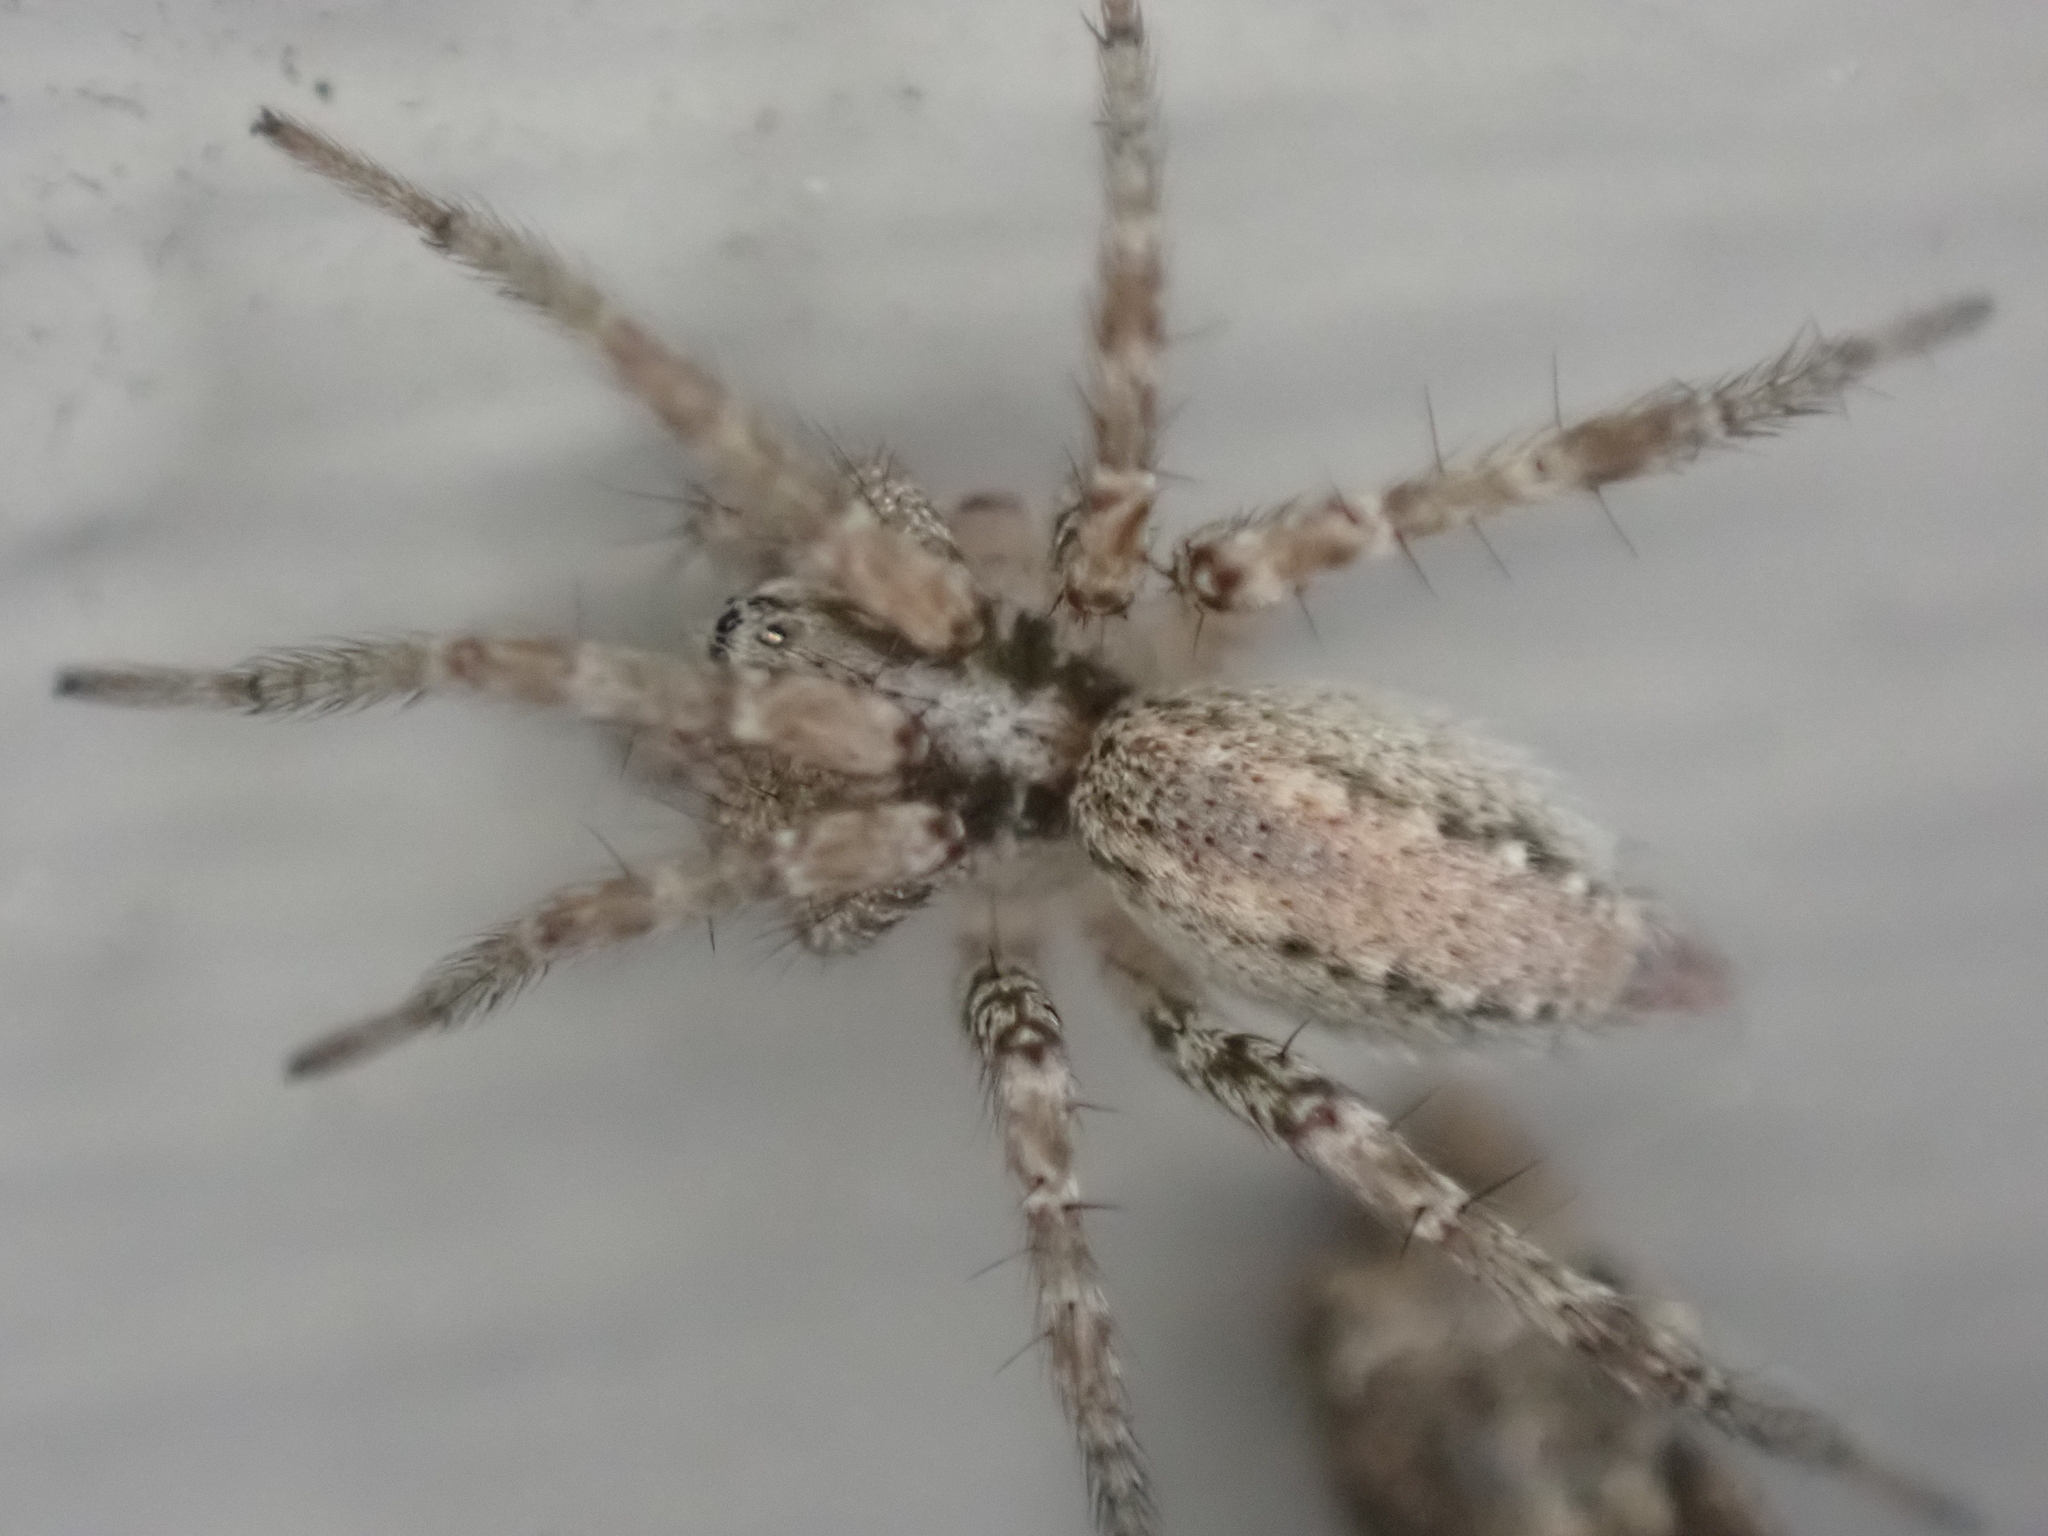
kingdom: Animalia
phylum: Arthropoda
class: Arachnida
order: Araneae
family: Agelenidae
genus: Barronopsis
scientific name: Barronopsis texana
